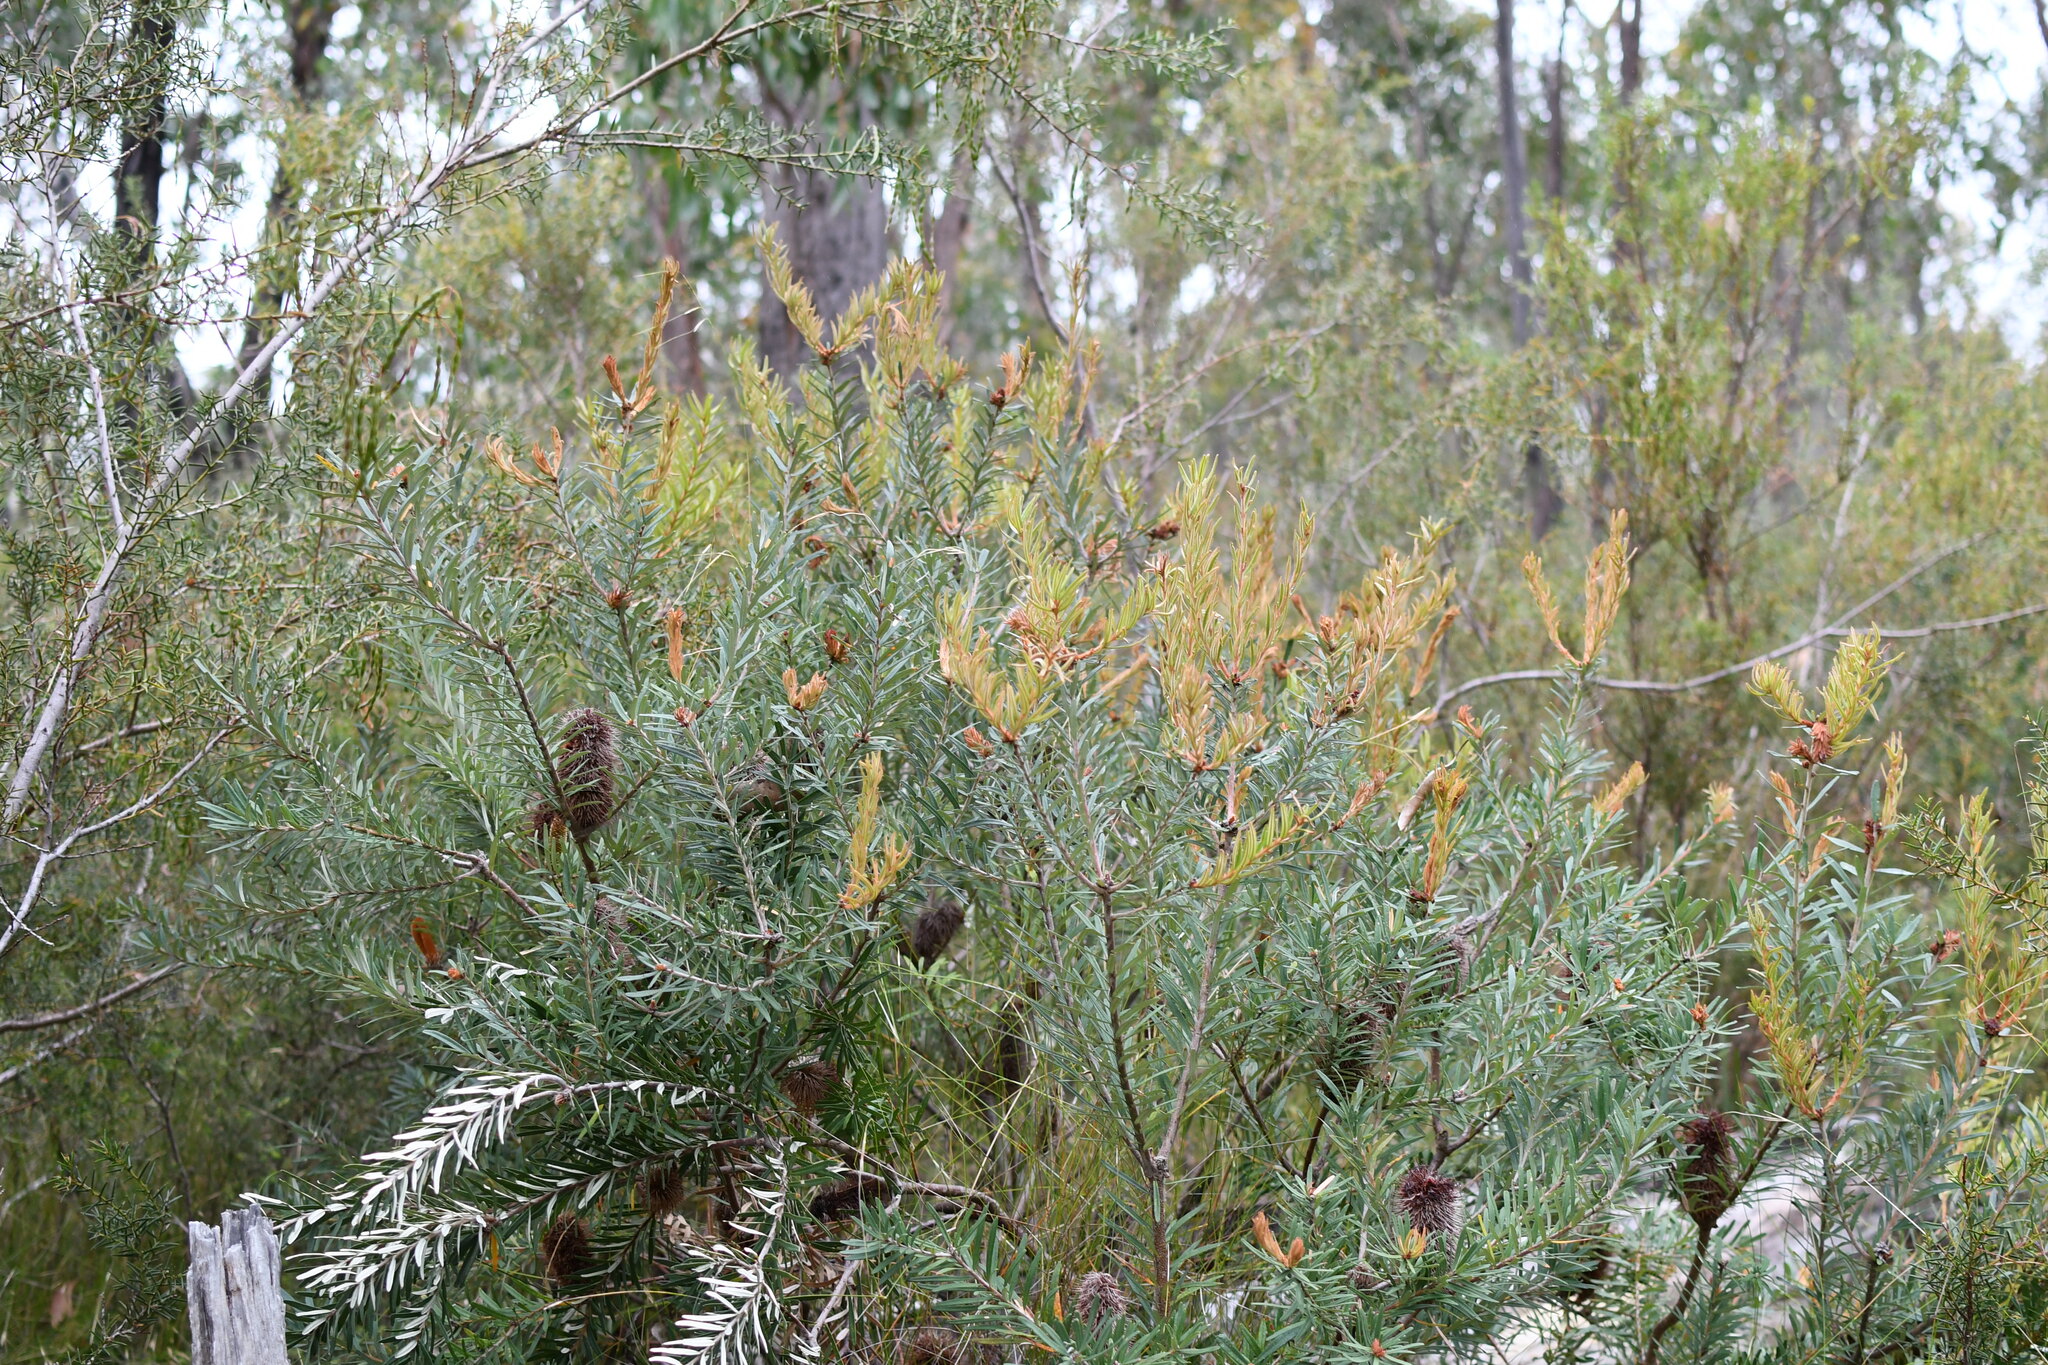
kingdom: Plantae
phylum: Tracheophyta
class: Magnoliopsida
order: Proteales
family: Proteaceae
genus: Banksia
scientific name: Banksia marginata
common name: Silver banksia
